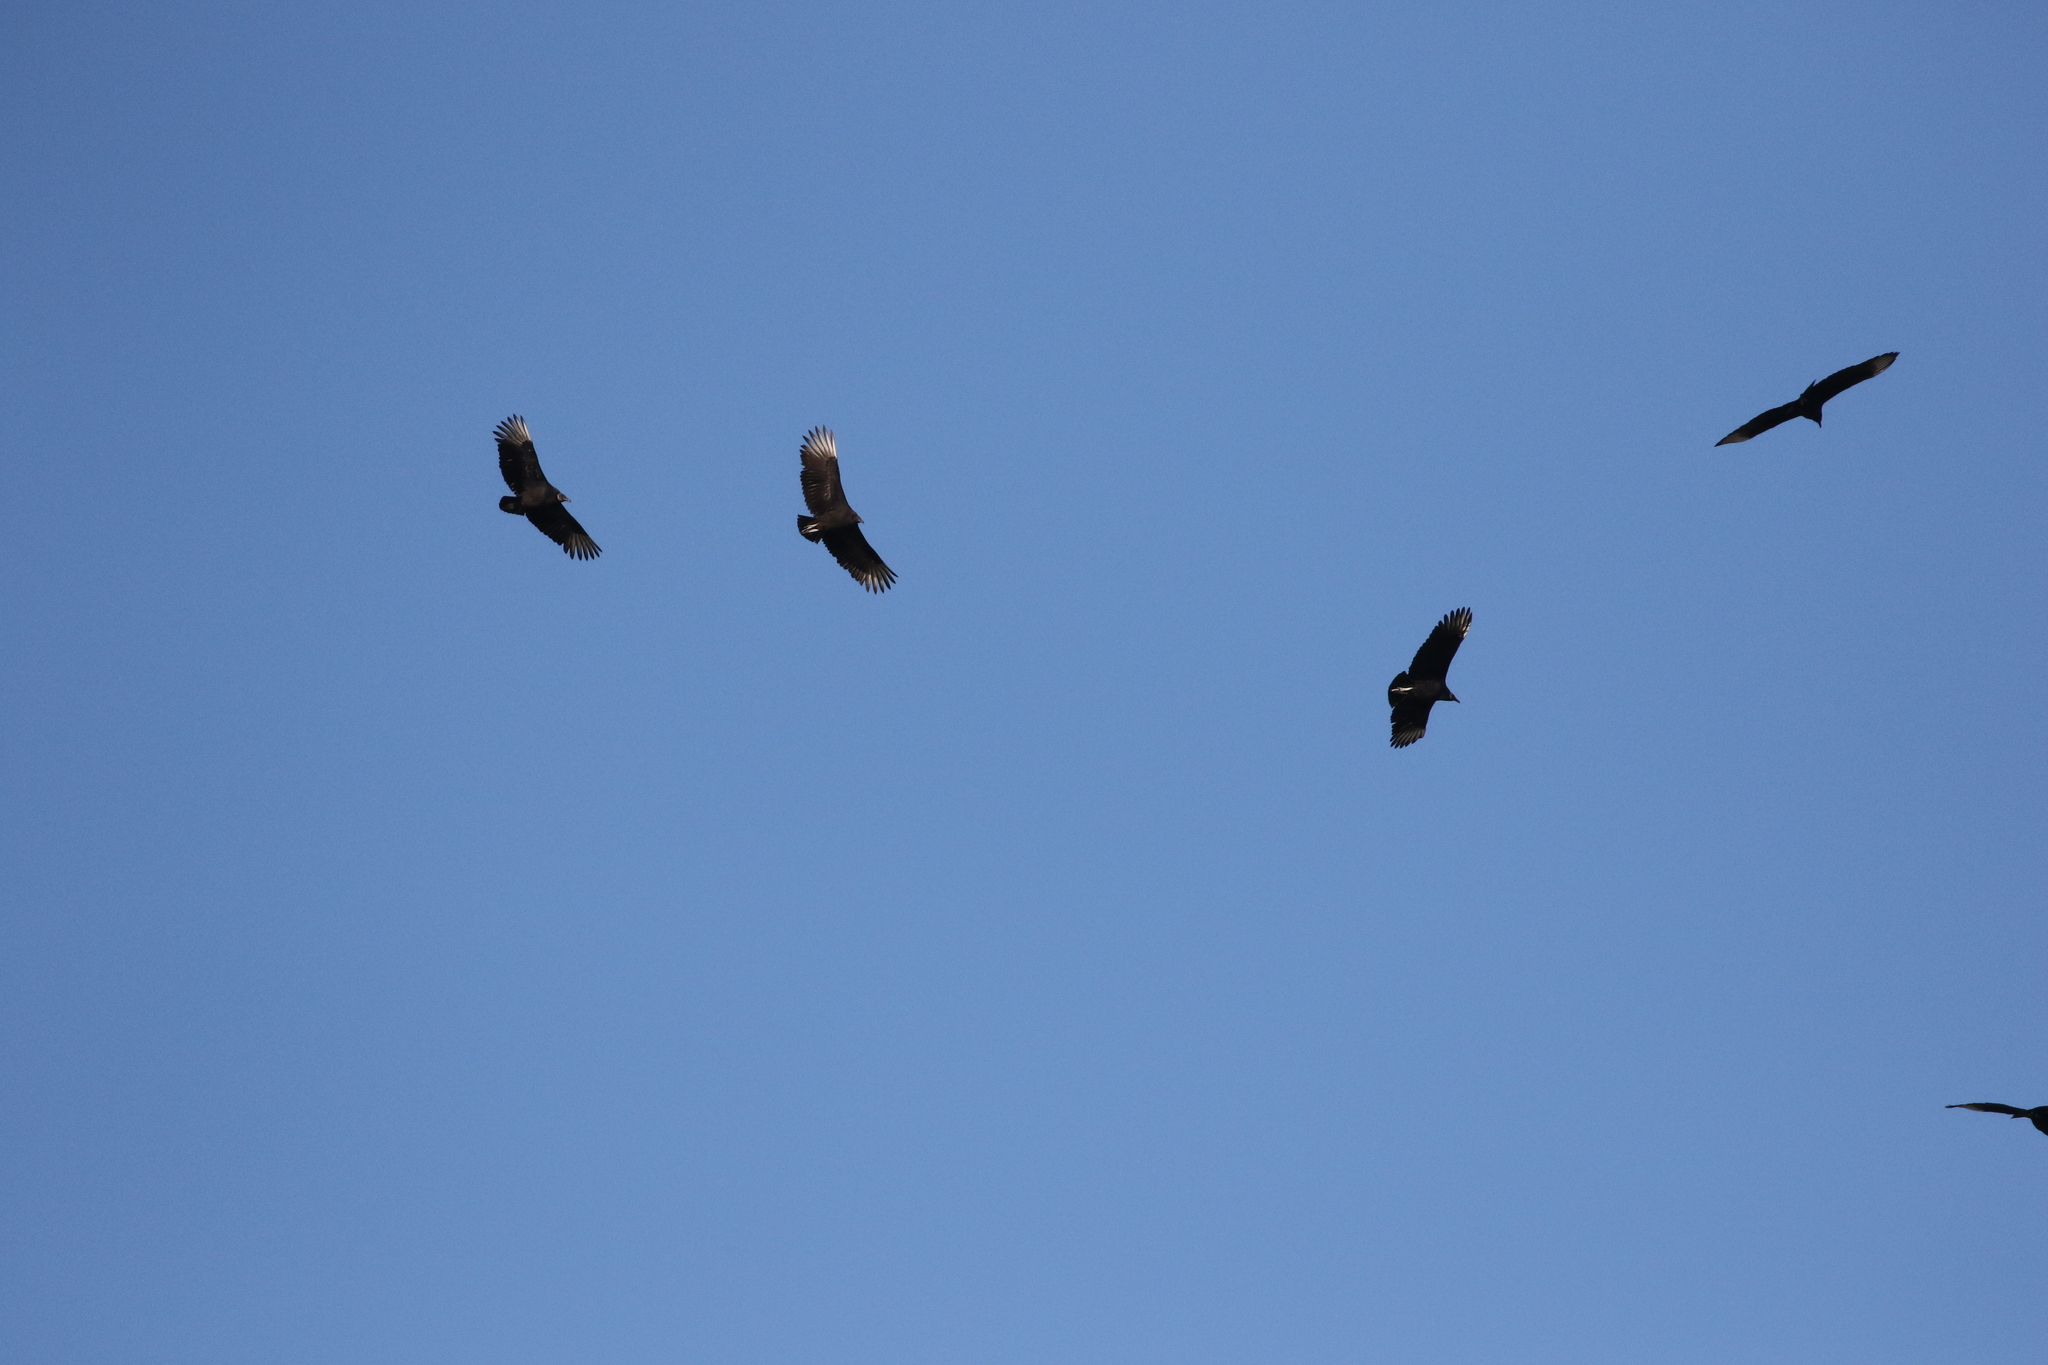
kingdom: Animalia
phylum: Chordata
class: Aves
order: Accipitriformes
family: Cathartidae
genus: Coragyps
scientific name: Coragyps atratus
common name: Black vulture
